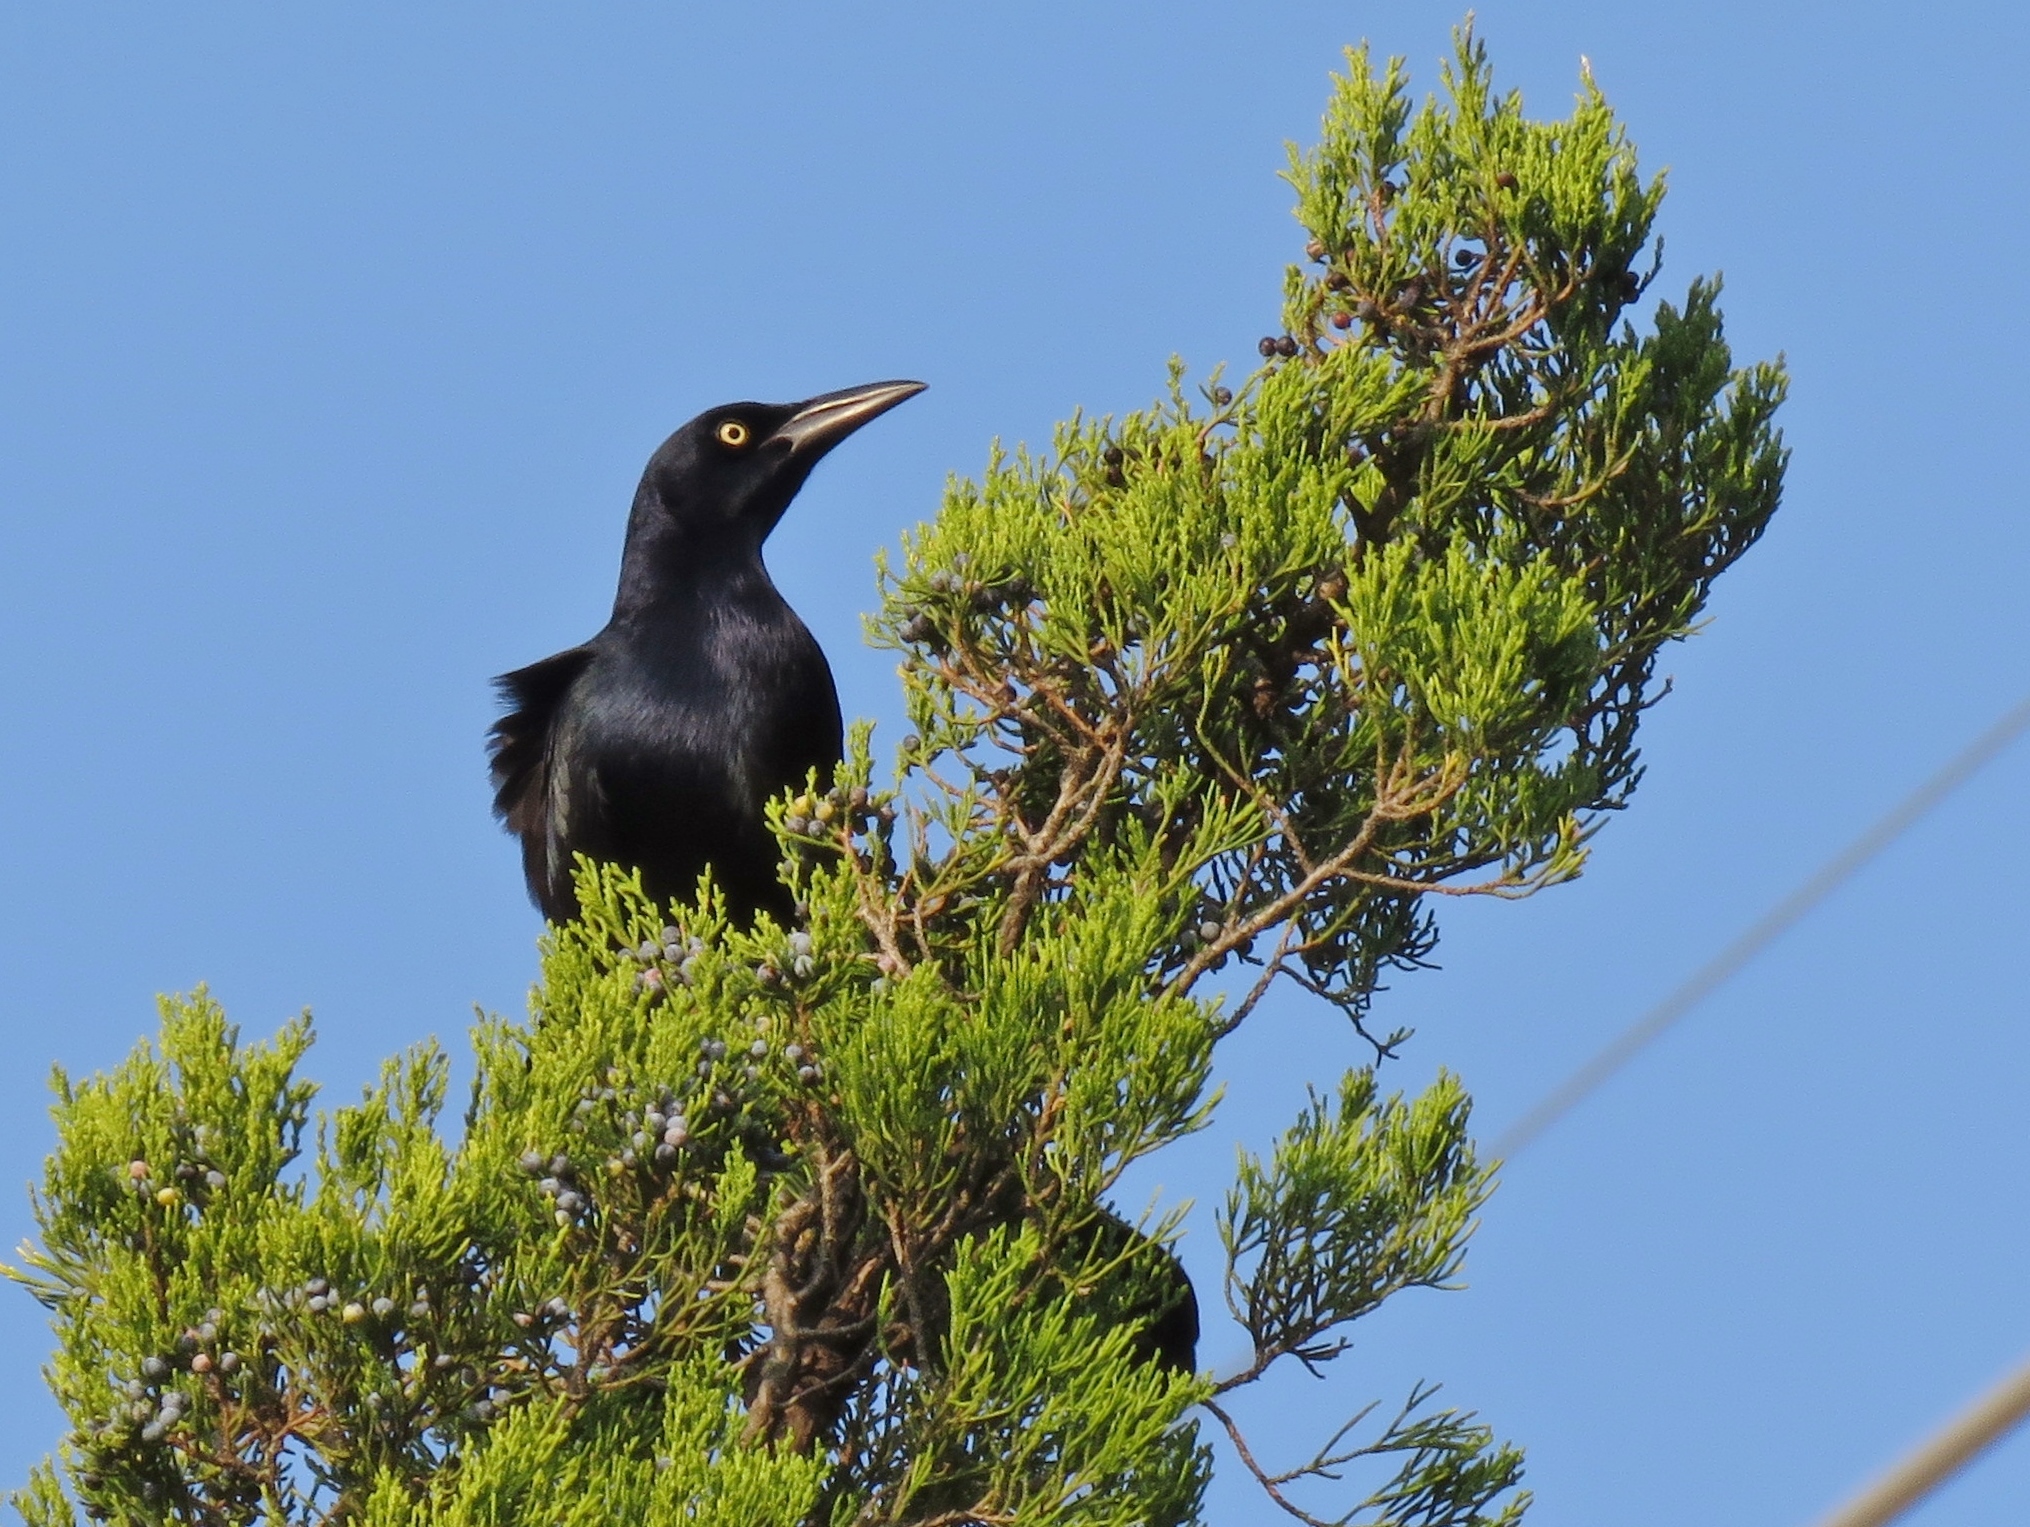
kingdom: Animalia
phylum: Chordata
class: Aves
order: Passeriformes
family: Icteridae
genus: Quiscalus
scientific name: Quiscalus mexicanus
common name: Great-tailed grackle
